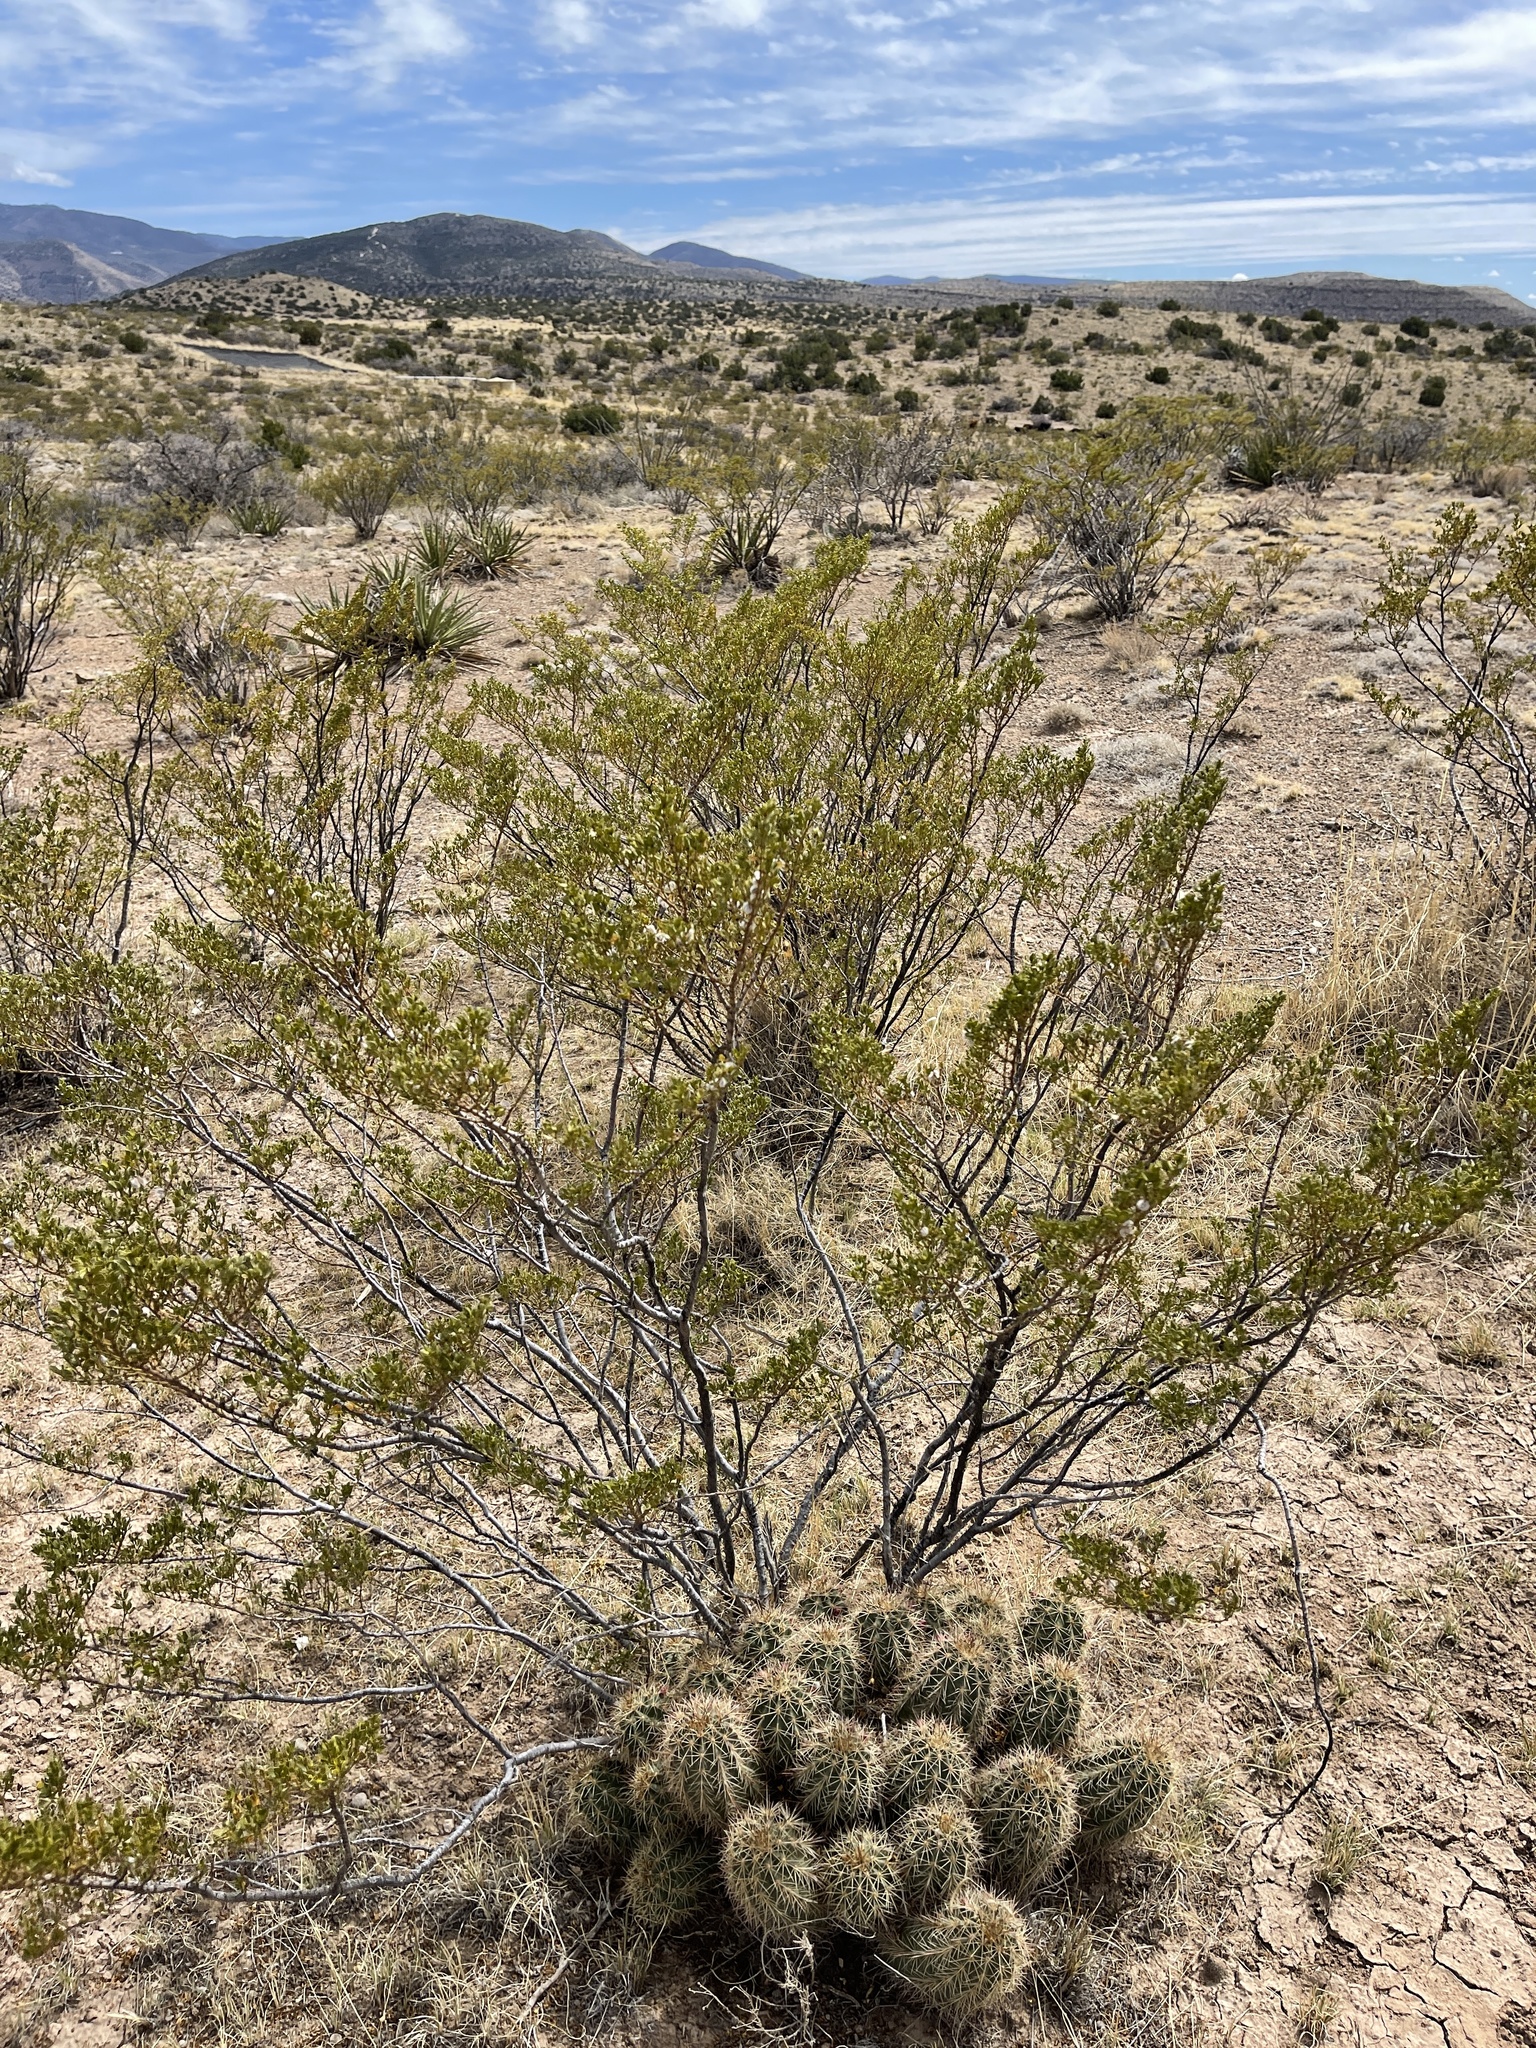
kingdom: Plantae
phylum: Tracheophyta
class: Magnoliopsida
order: Zygophyllales
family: Zygophyllaceae
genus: Larrea
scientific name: Larrea tridentata
